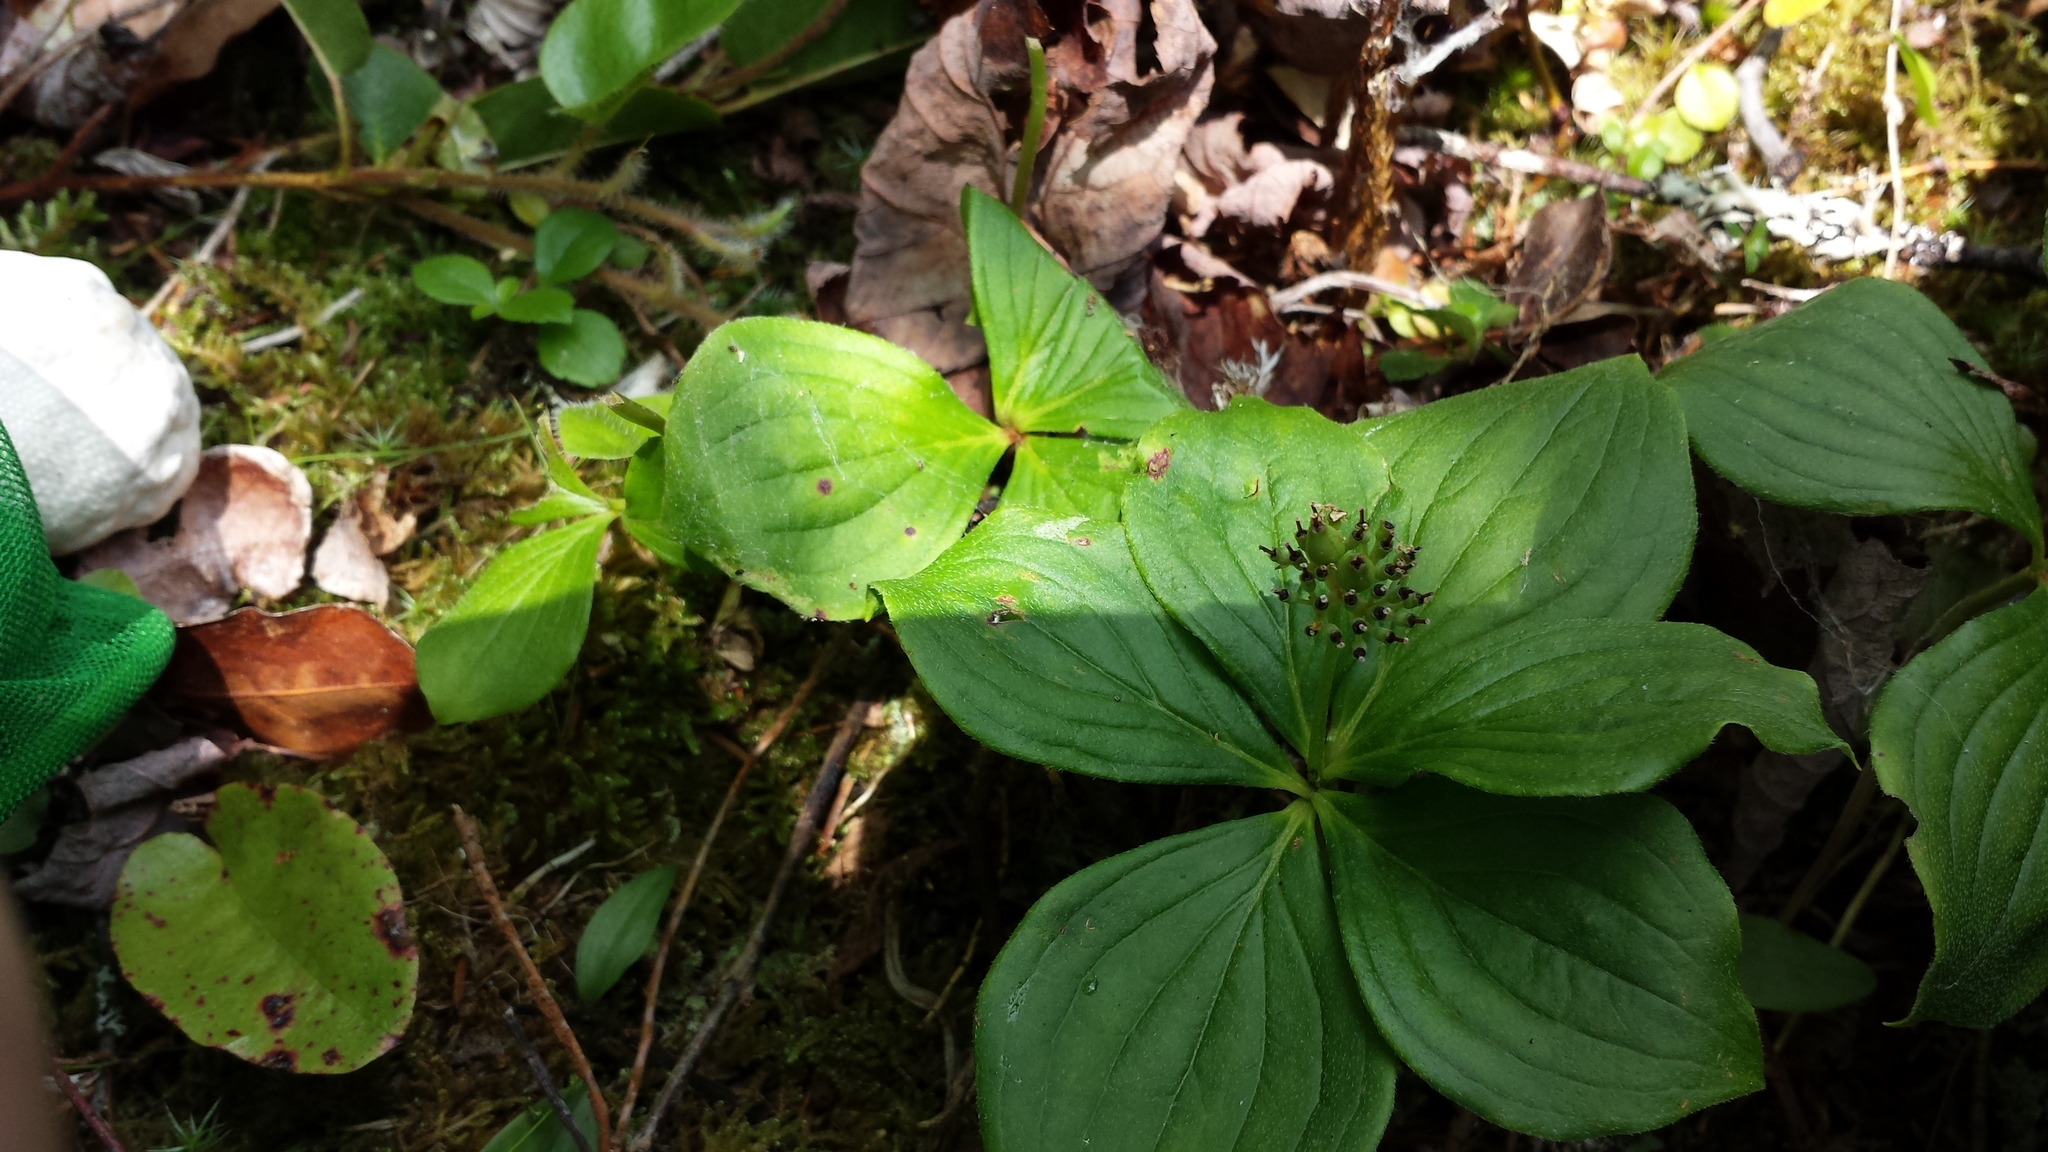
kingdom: Plantae
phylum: Tracheophyta
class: Magnoliopsida
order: Cornales
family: Cornaceae
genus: Cornus
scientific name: Cornus canadensis
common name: Creeping dogwood
